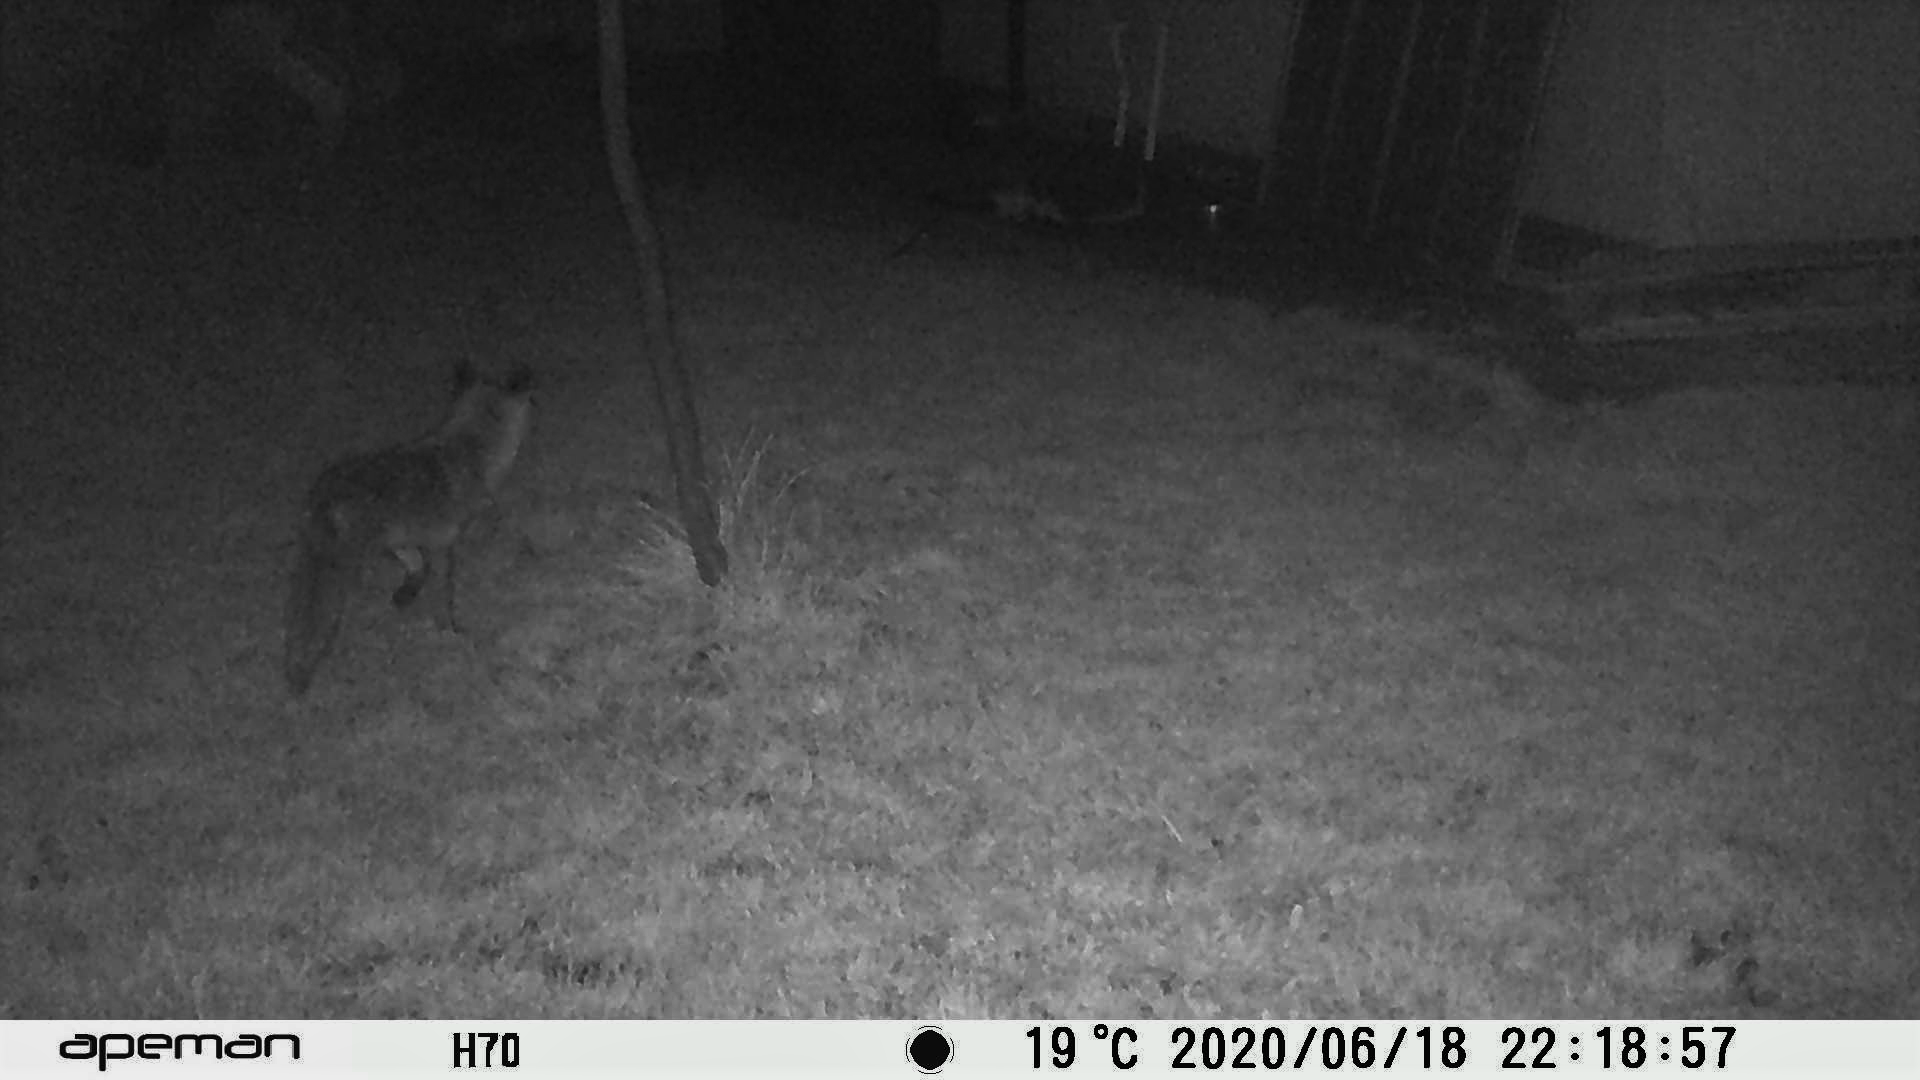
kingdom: Animalia
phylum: Chordata
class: Mammalia
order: Carnivora
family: Canidae
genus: Vulpes
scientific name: Vulpes vulpes
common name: Red fox
